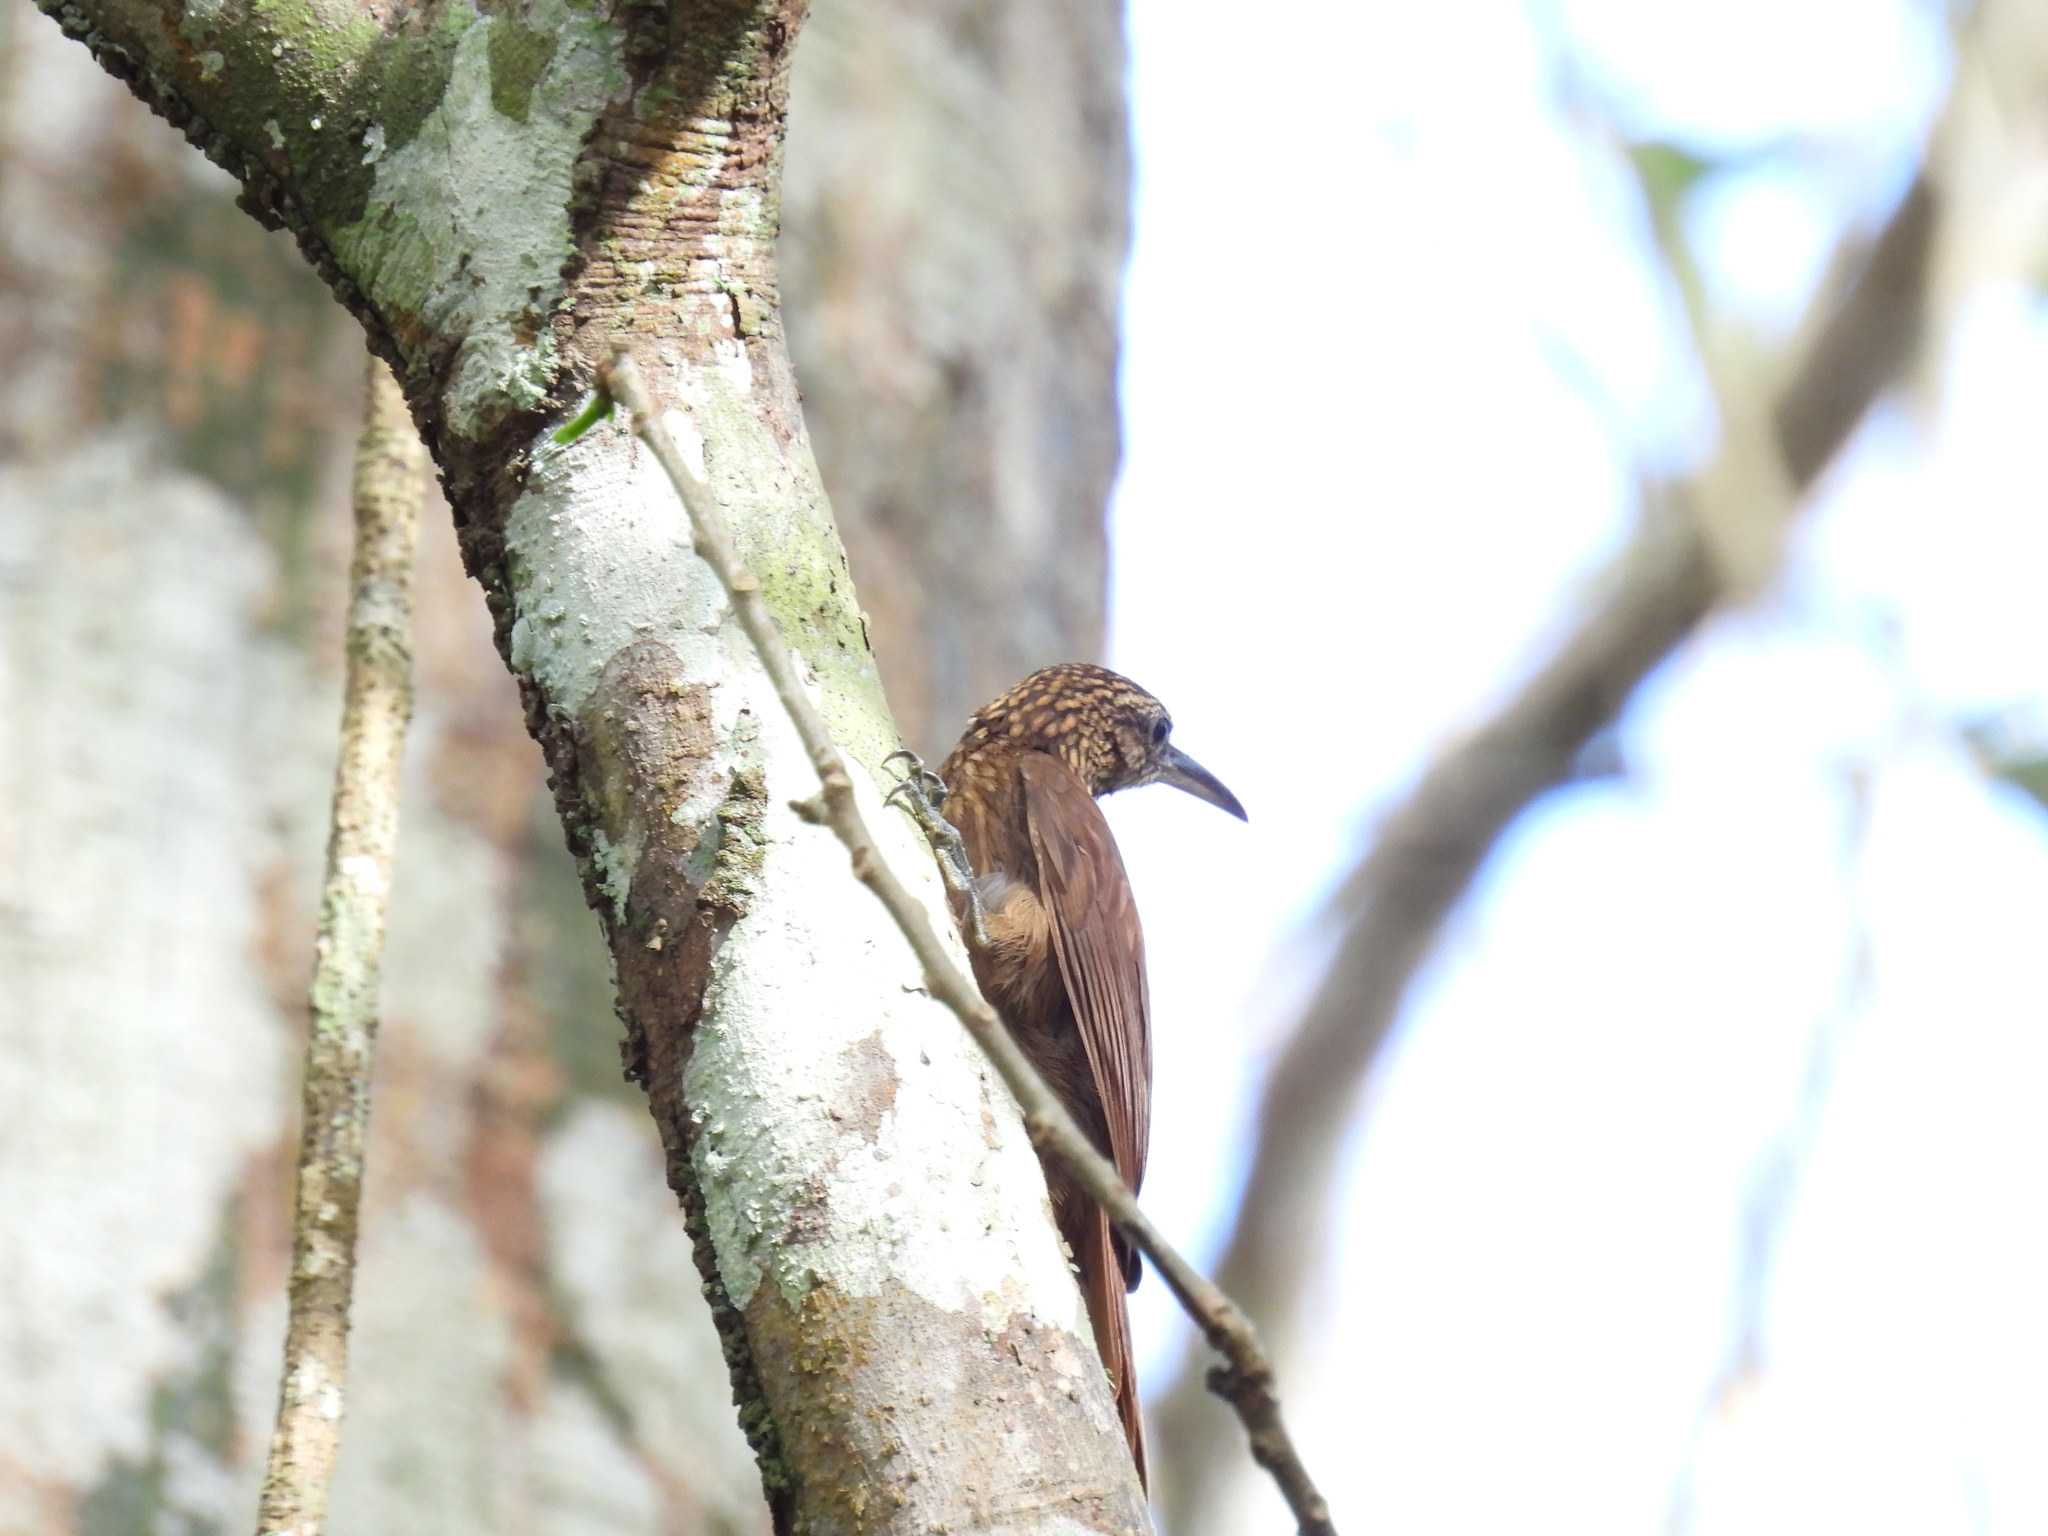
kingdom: Animalia
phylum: Chordata
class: Aves
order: Passeriformes
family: Furnariidae
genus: Xiphorhynchus
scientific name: Xiphorhynchus susurrans
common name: Cocoa woodcreeper
